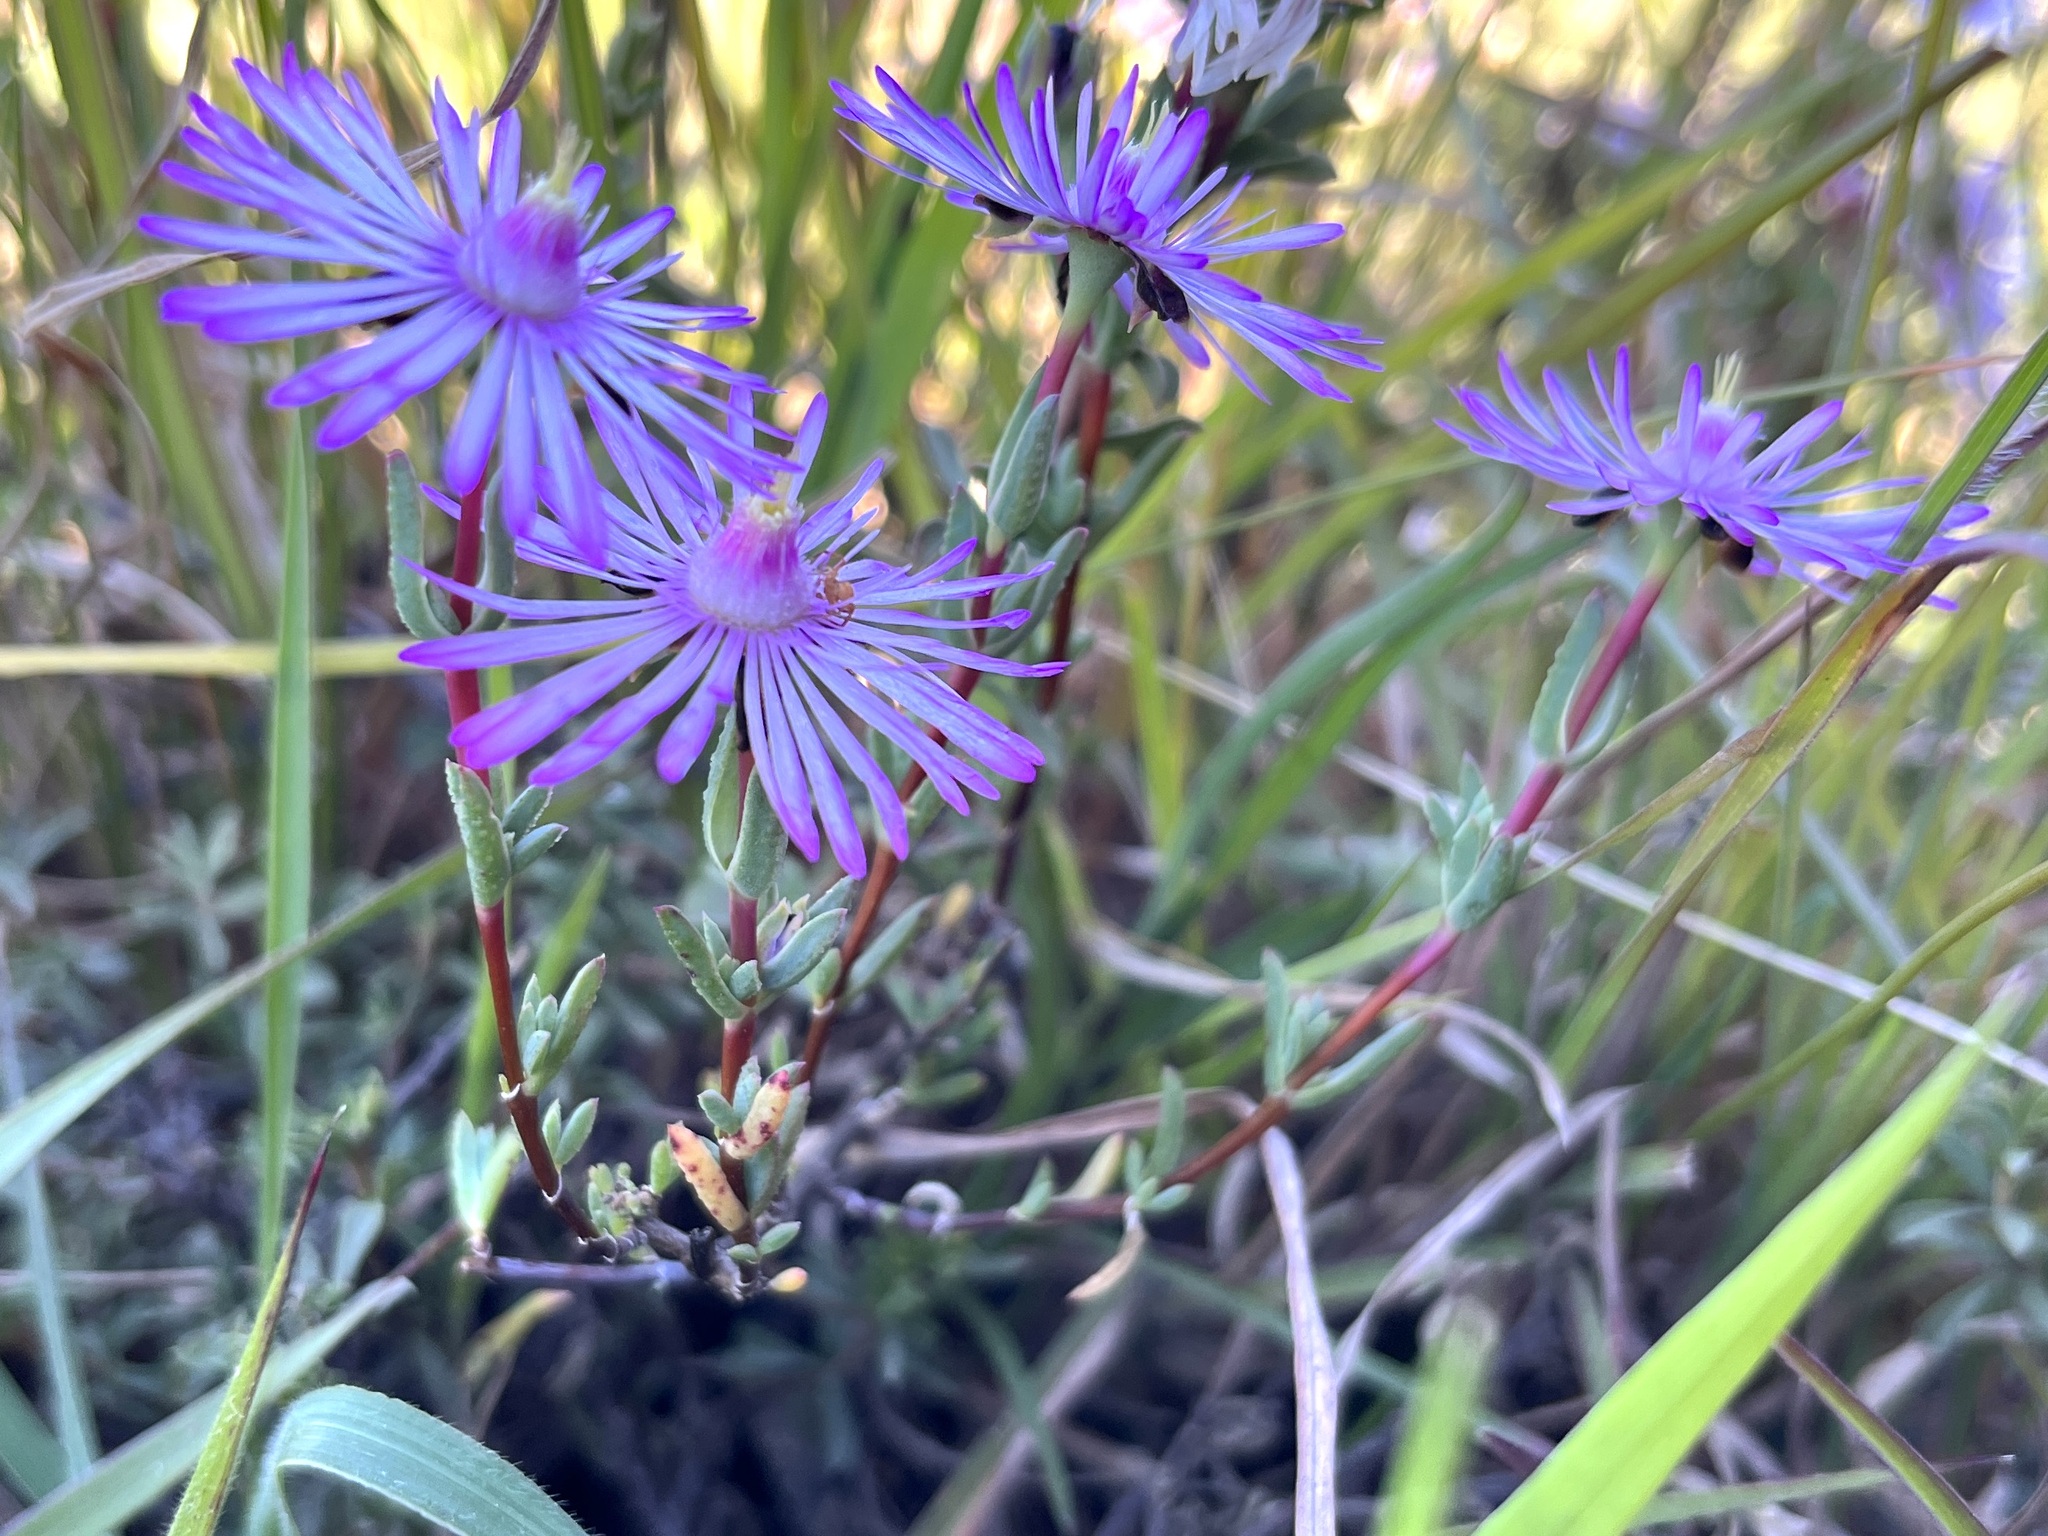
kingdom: Plantae
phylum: Tracheophyta
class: Magnoliopsida
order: Caryophyllales
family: Aizoaceae
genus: Lampranthus
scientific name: Lampranthus elegans
